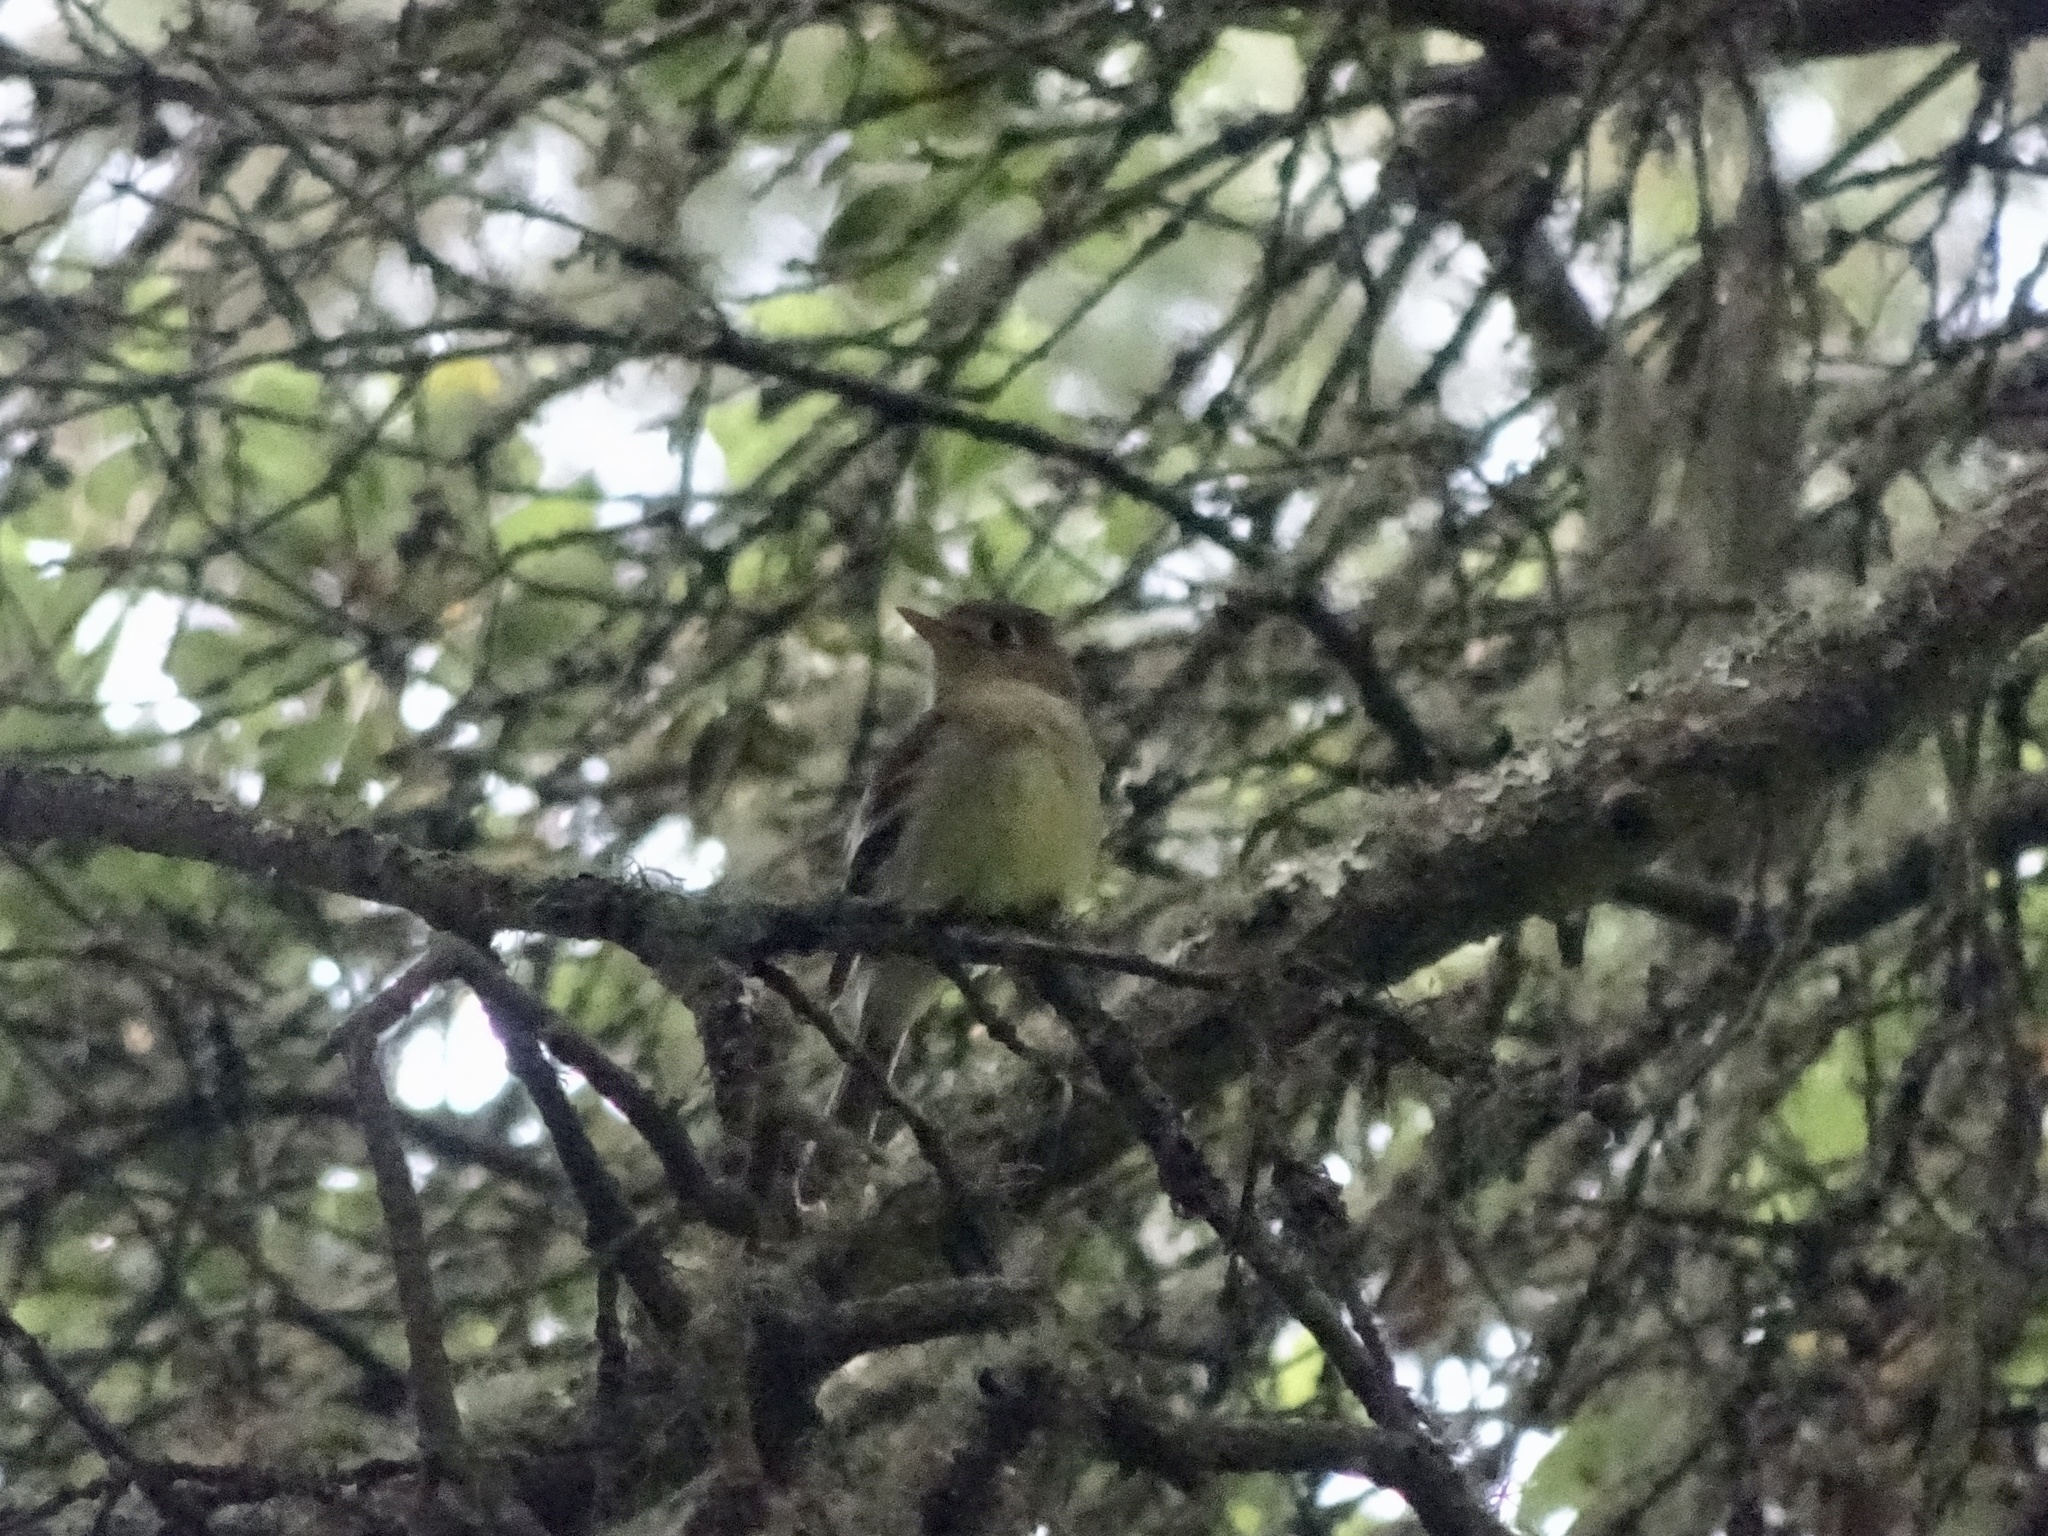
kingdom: Animalia
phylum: Chordata
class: Aves
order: Passeriformes
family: Tyrannidae
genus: Empidonax
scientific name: Empidonax difficilis
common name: Pacific-slope flycatcher
